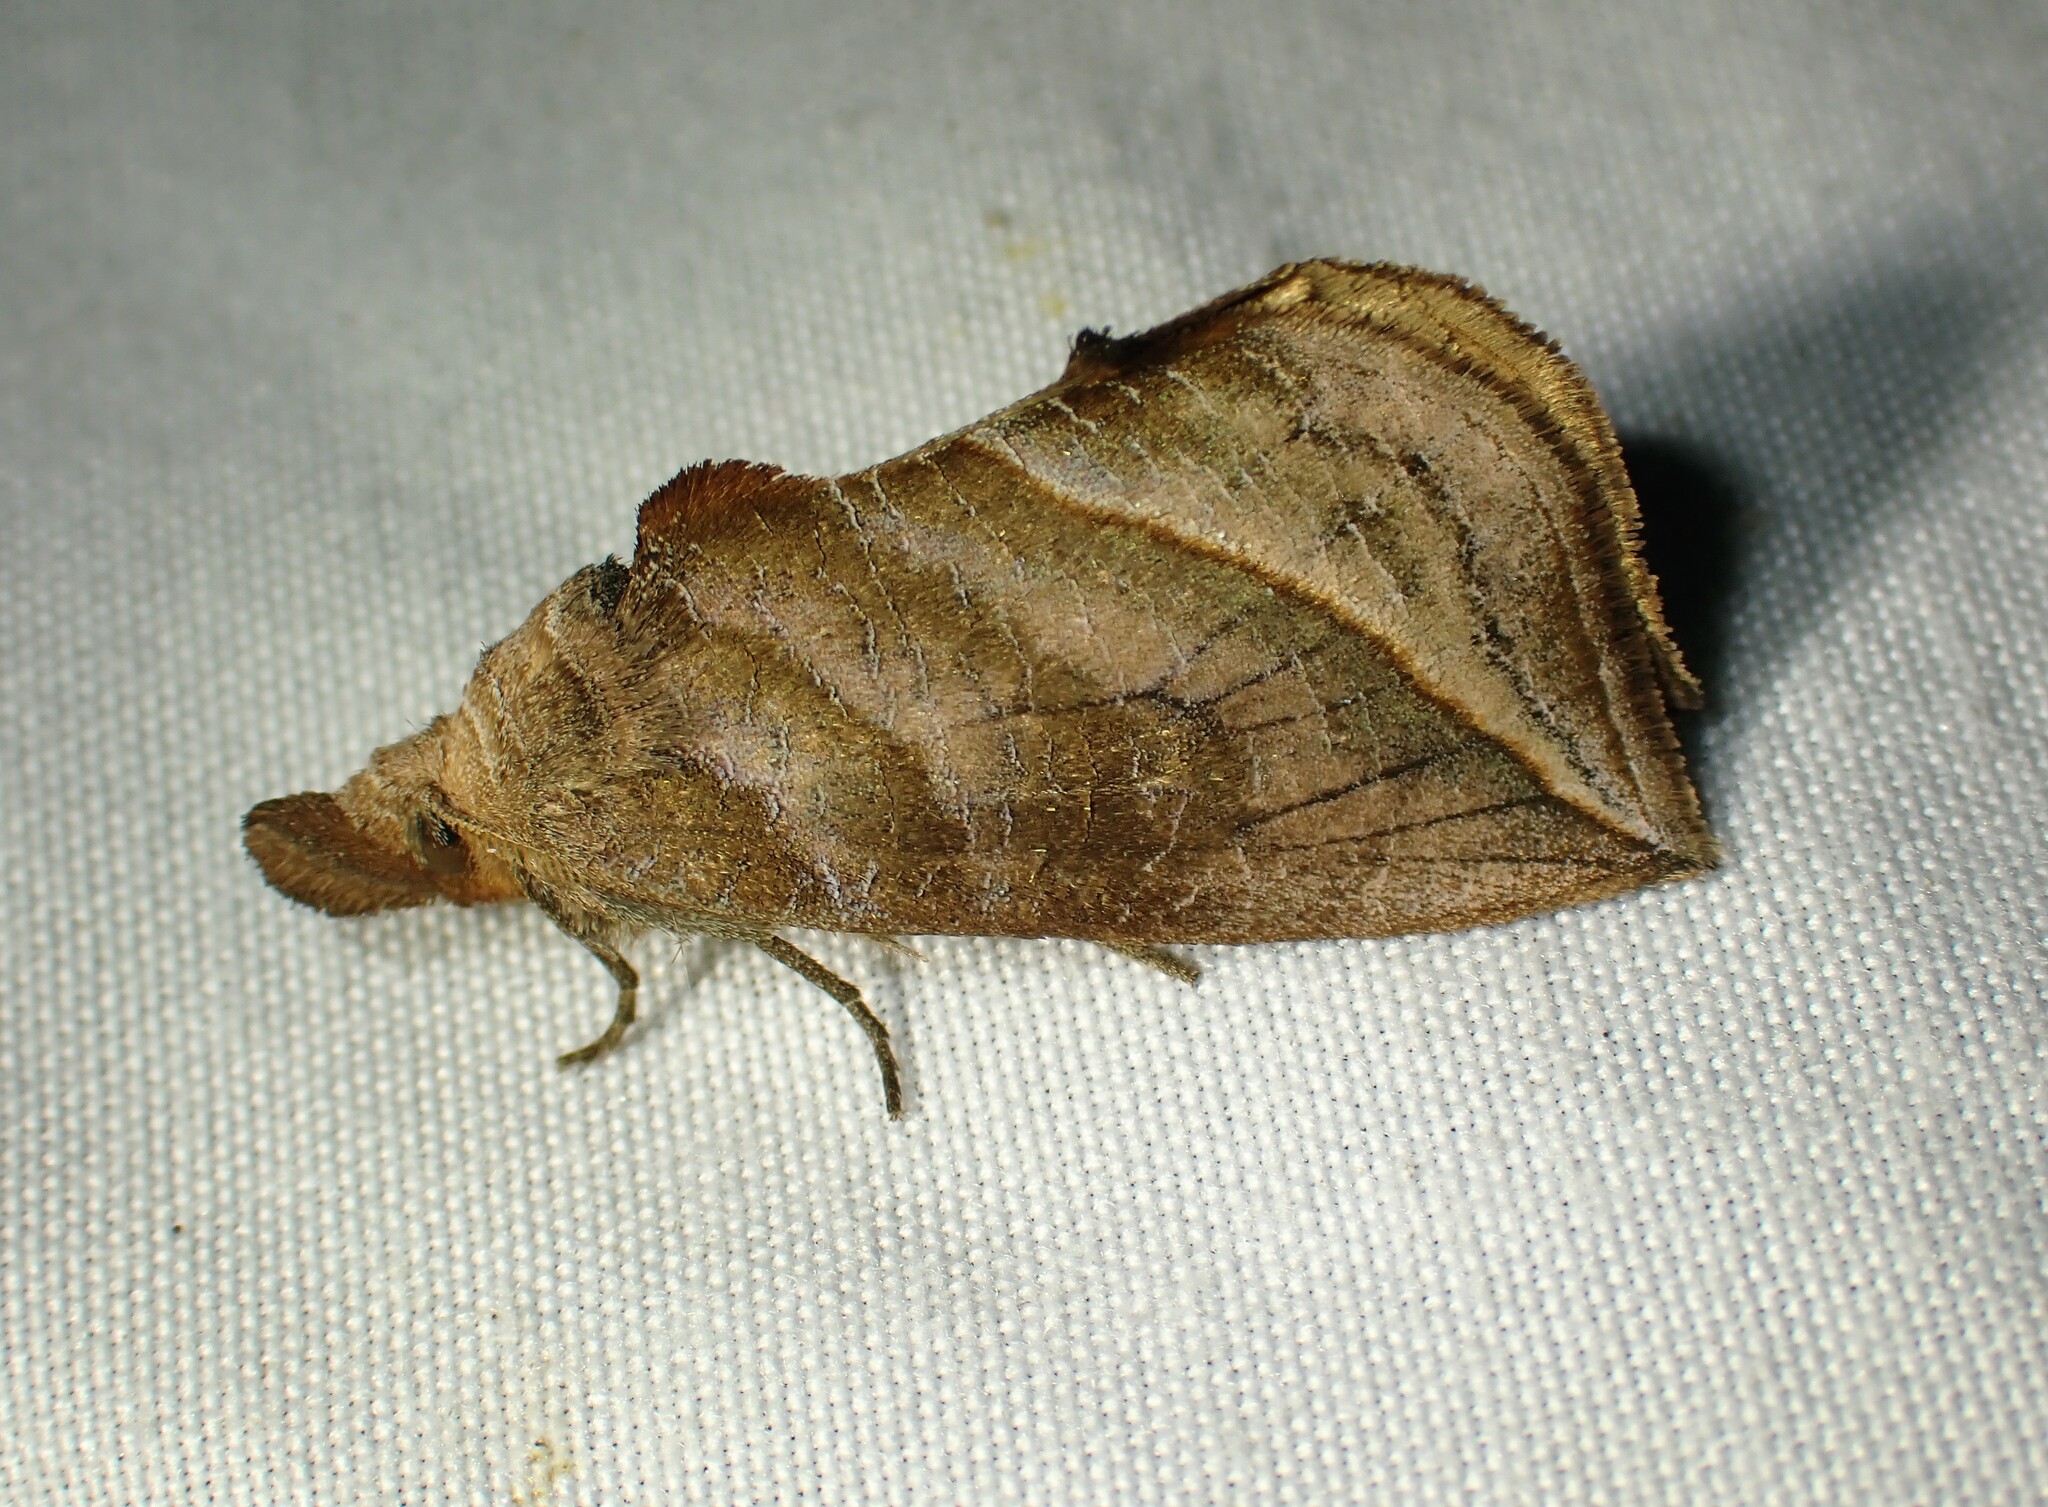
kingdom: Animalia
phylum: Arthropoda
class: Insecta
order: Lepidoptera
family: Erebidae
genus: Calyptra
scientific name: Calyptra canadensis
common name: Canadian owlet
